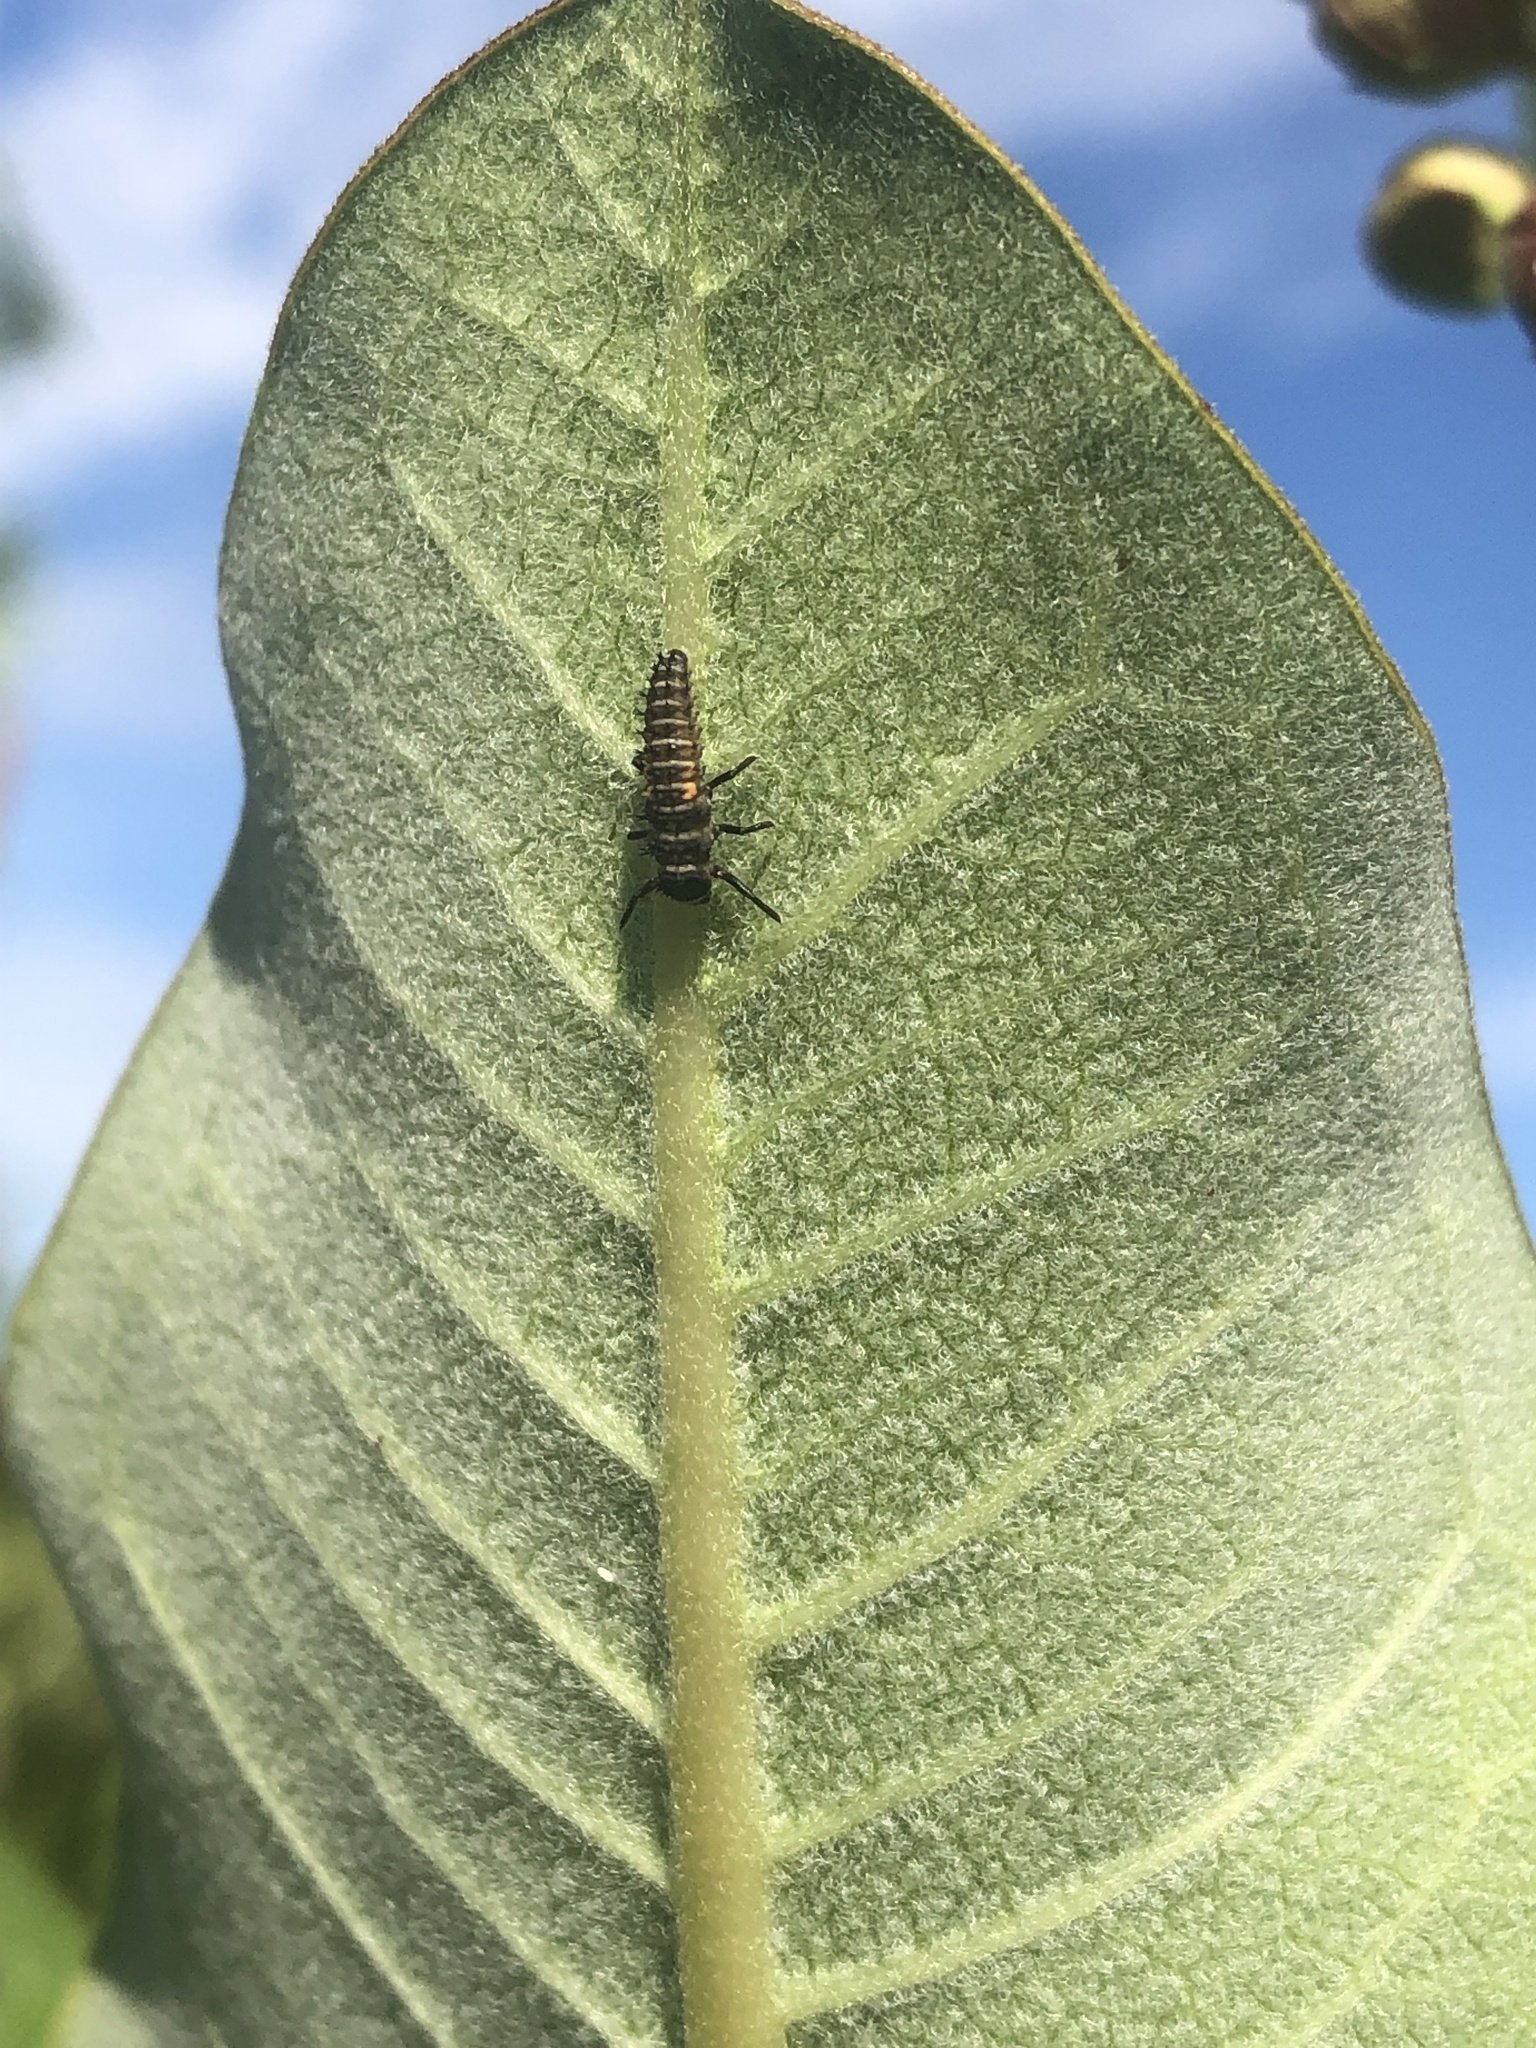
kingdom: Animalia
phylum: Arthropoda
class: Insecta
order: Coleoptera
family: Coccinellidae
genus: Harmonia
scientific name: Harmonia axyridis
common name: Harlequin ladybird
